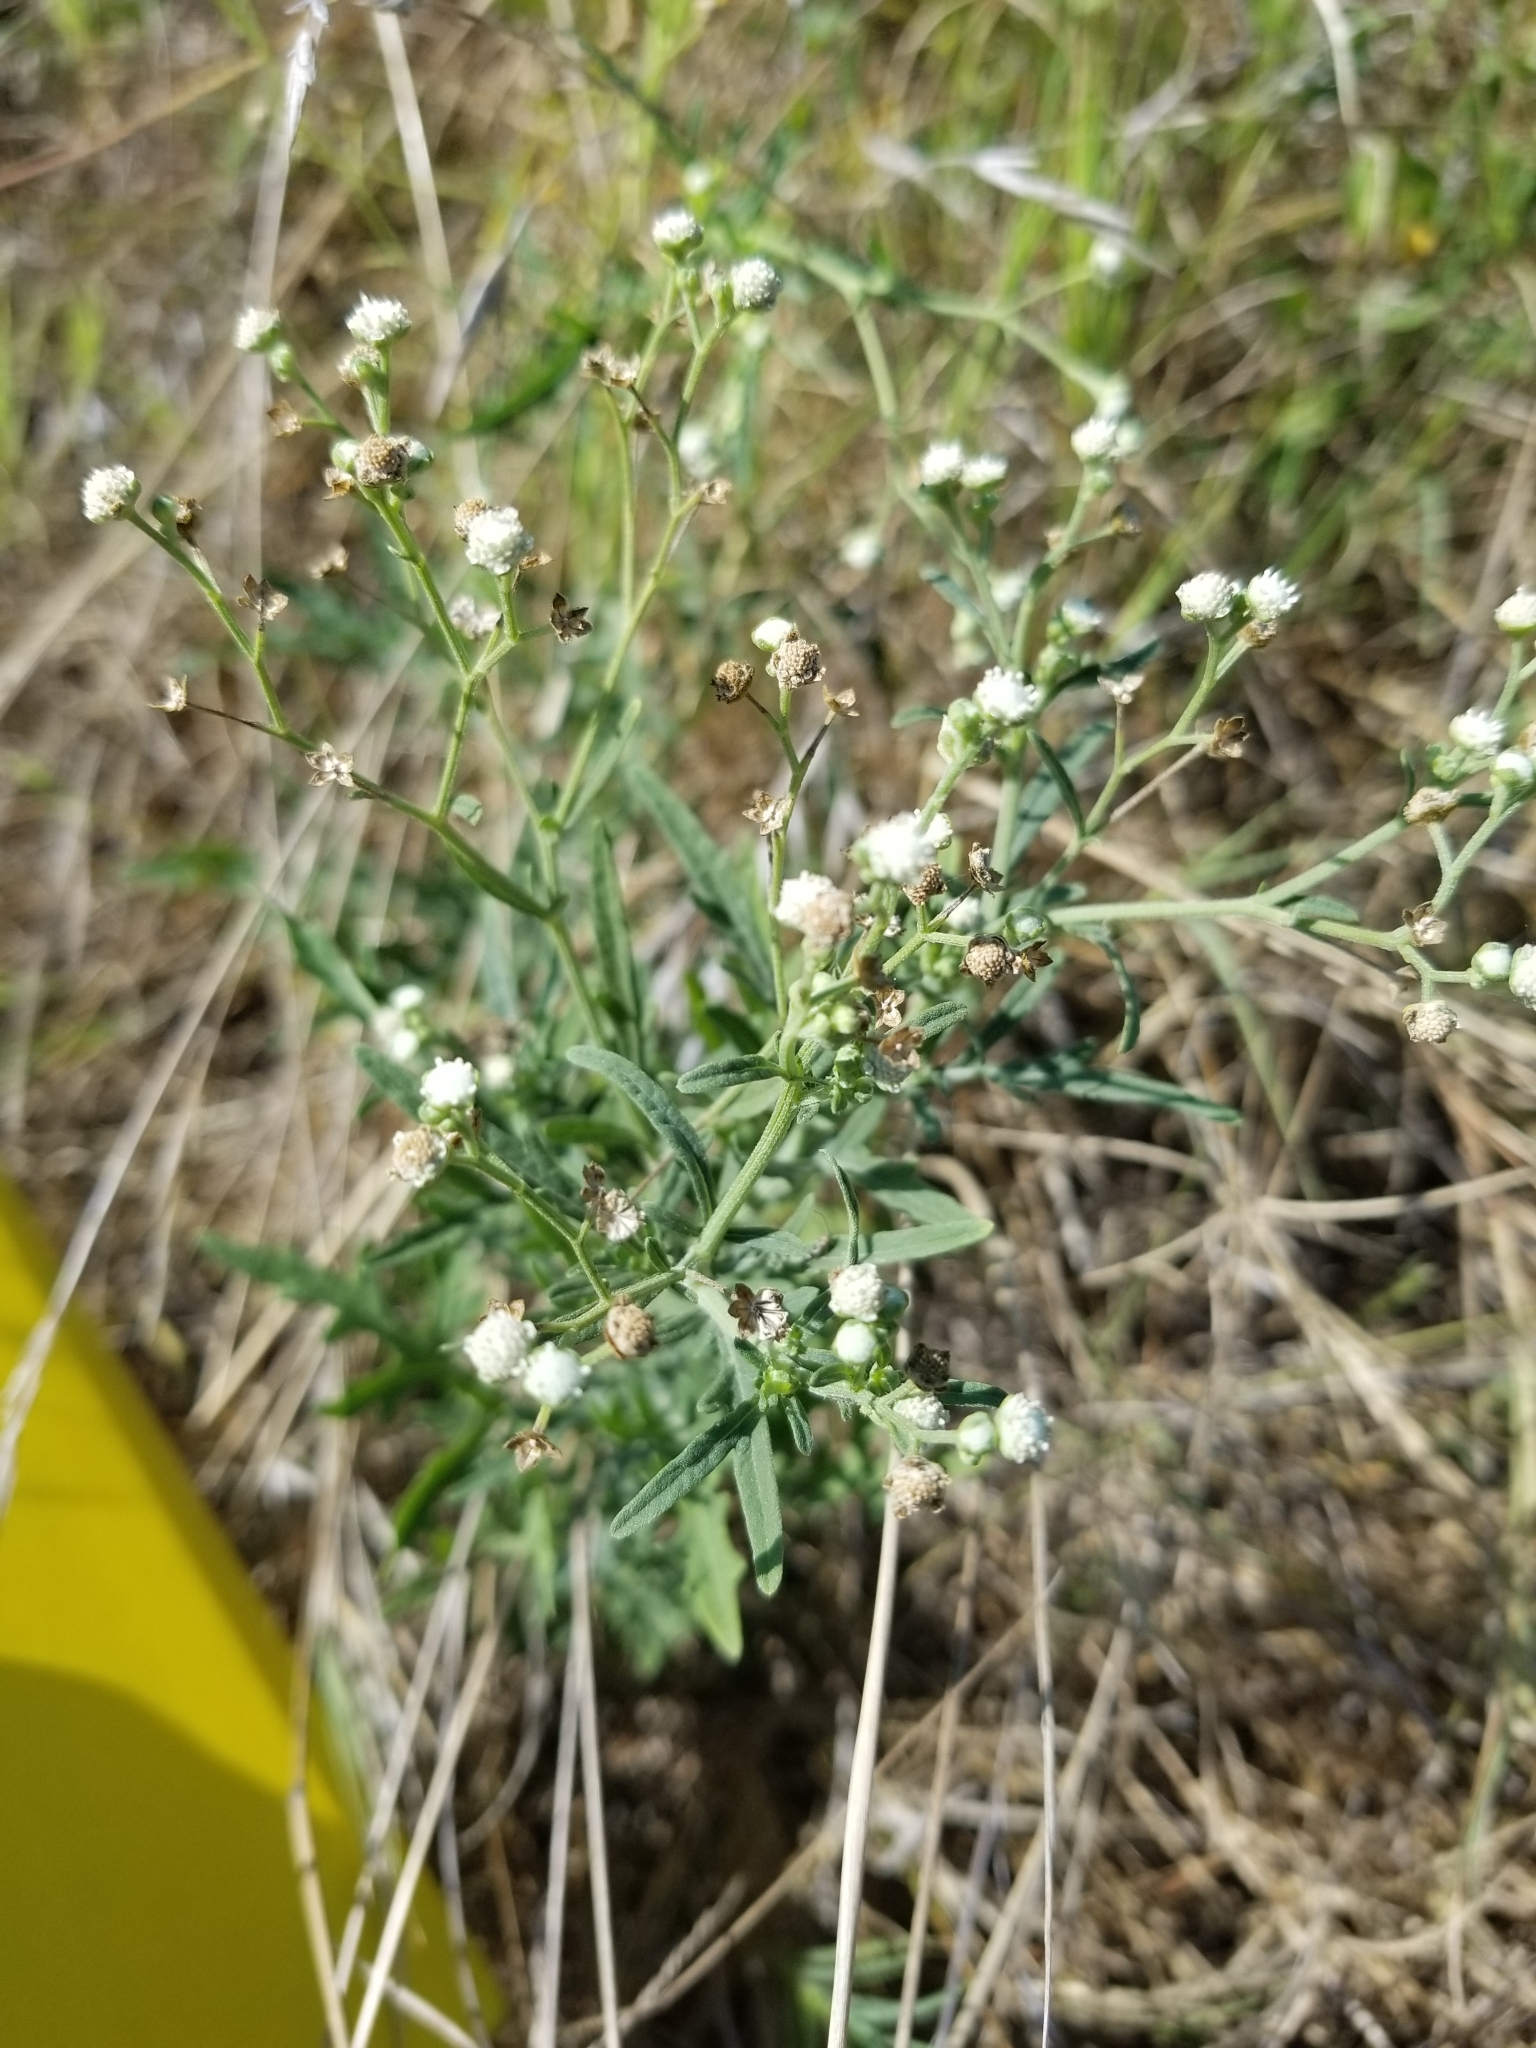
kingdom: Plantae
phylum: Tracheophyta
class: Magnoliopsida
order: Asterales
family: Asteraceae
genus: Parthenium
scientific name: Parthenium hysterophorus
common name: Santa maria feverfew
